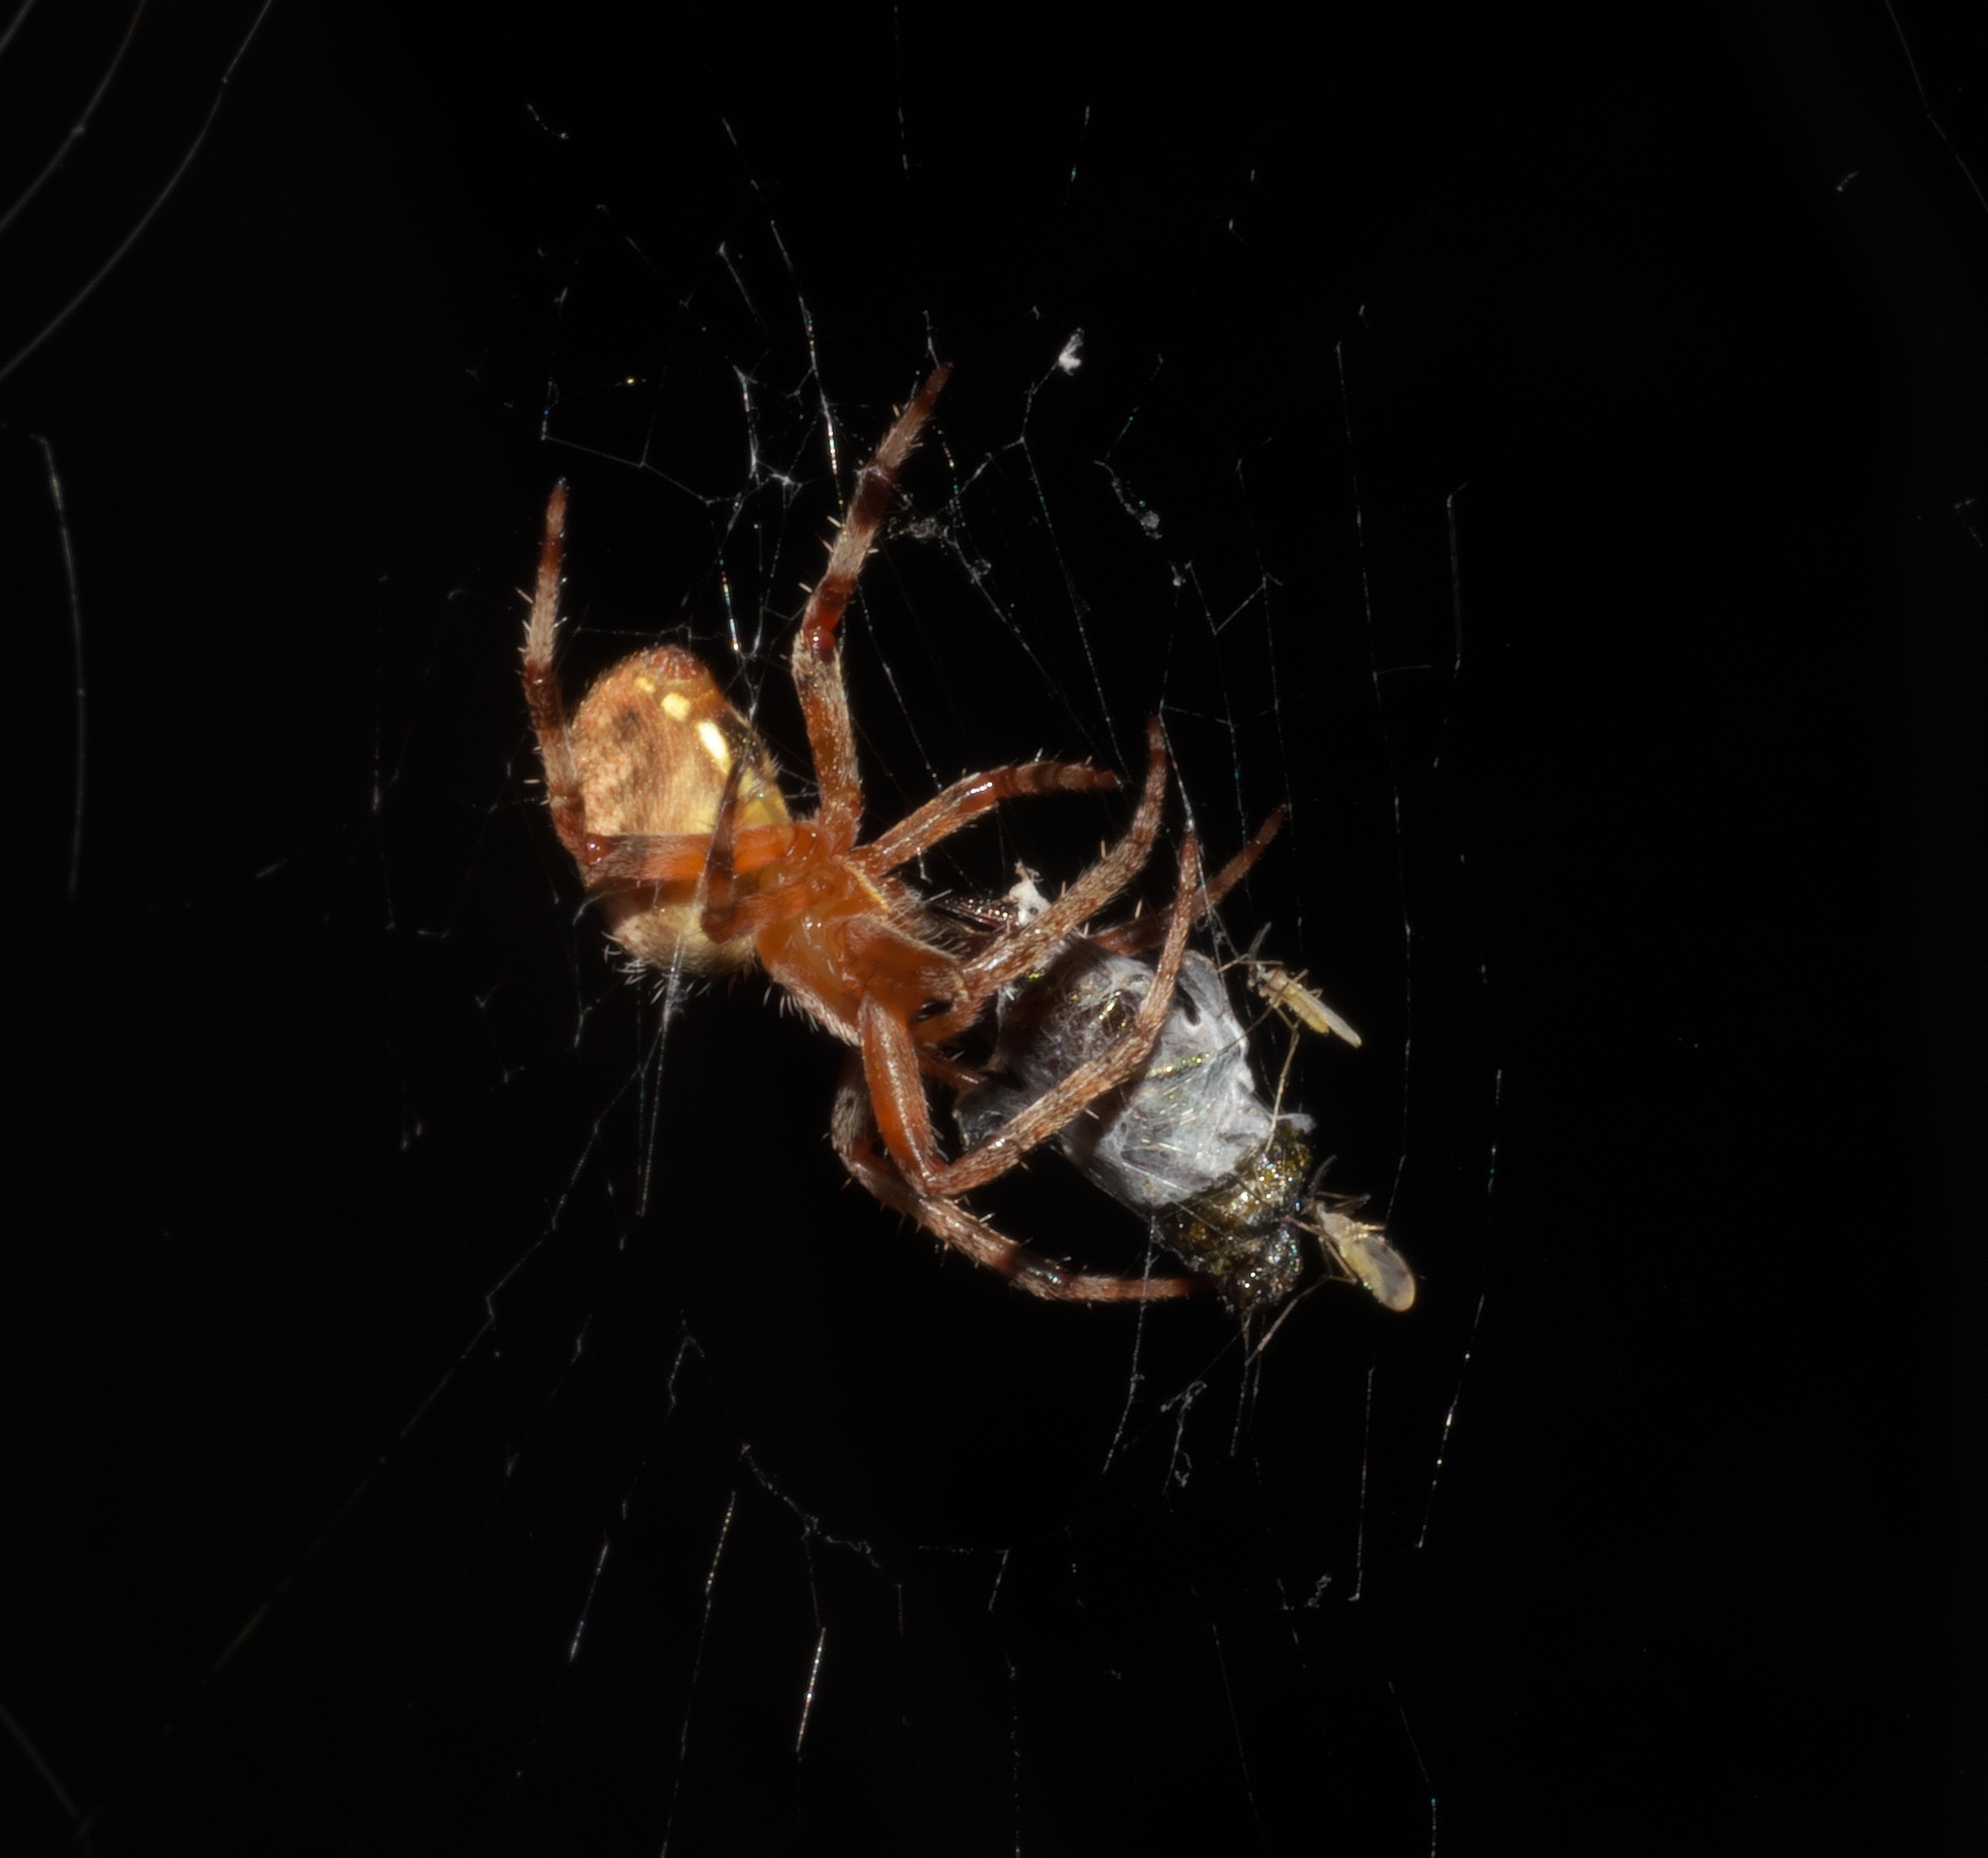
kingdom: Animalia
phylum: Arthropoda
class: Arachnida
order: Araneae
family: Araneidae
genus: Neoscona
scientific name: Neoscona arabesca
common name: Orb weavers
